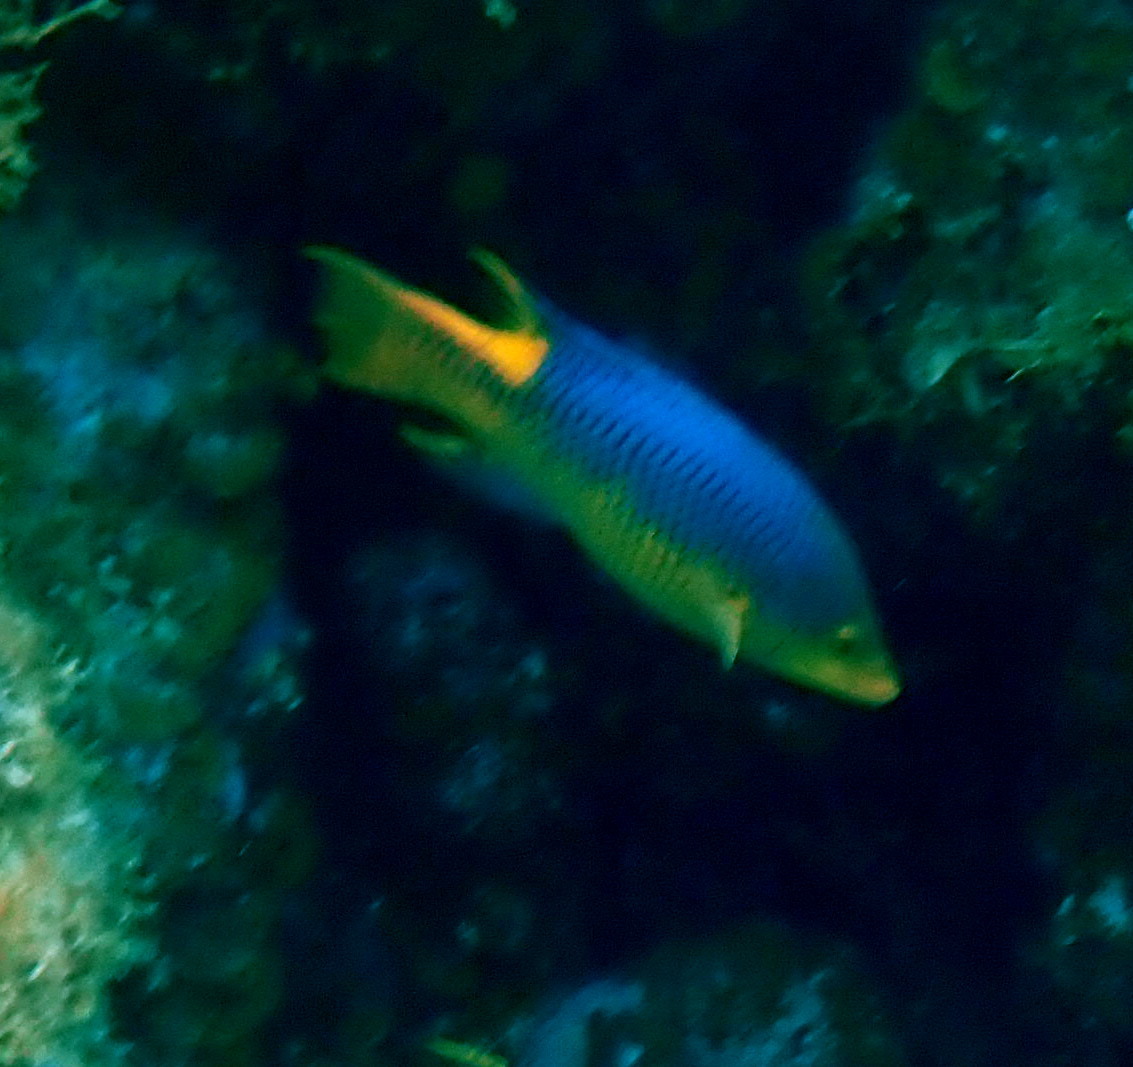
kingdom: Animalia
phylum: Chordata
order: Perciformes
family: Labridae
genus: Bodianus
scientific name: Bodianus rufus
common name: Spanish hogfish
